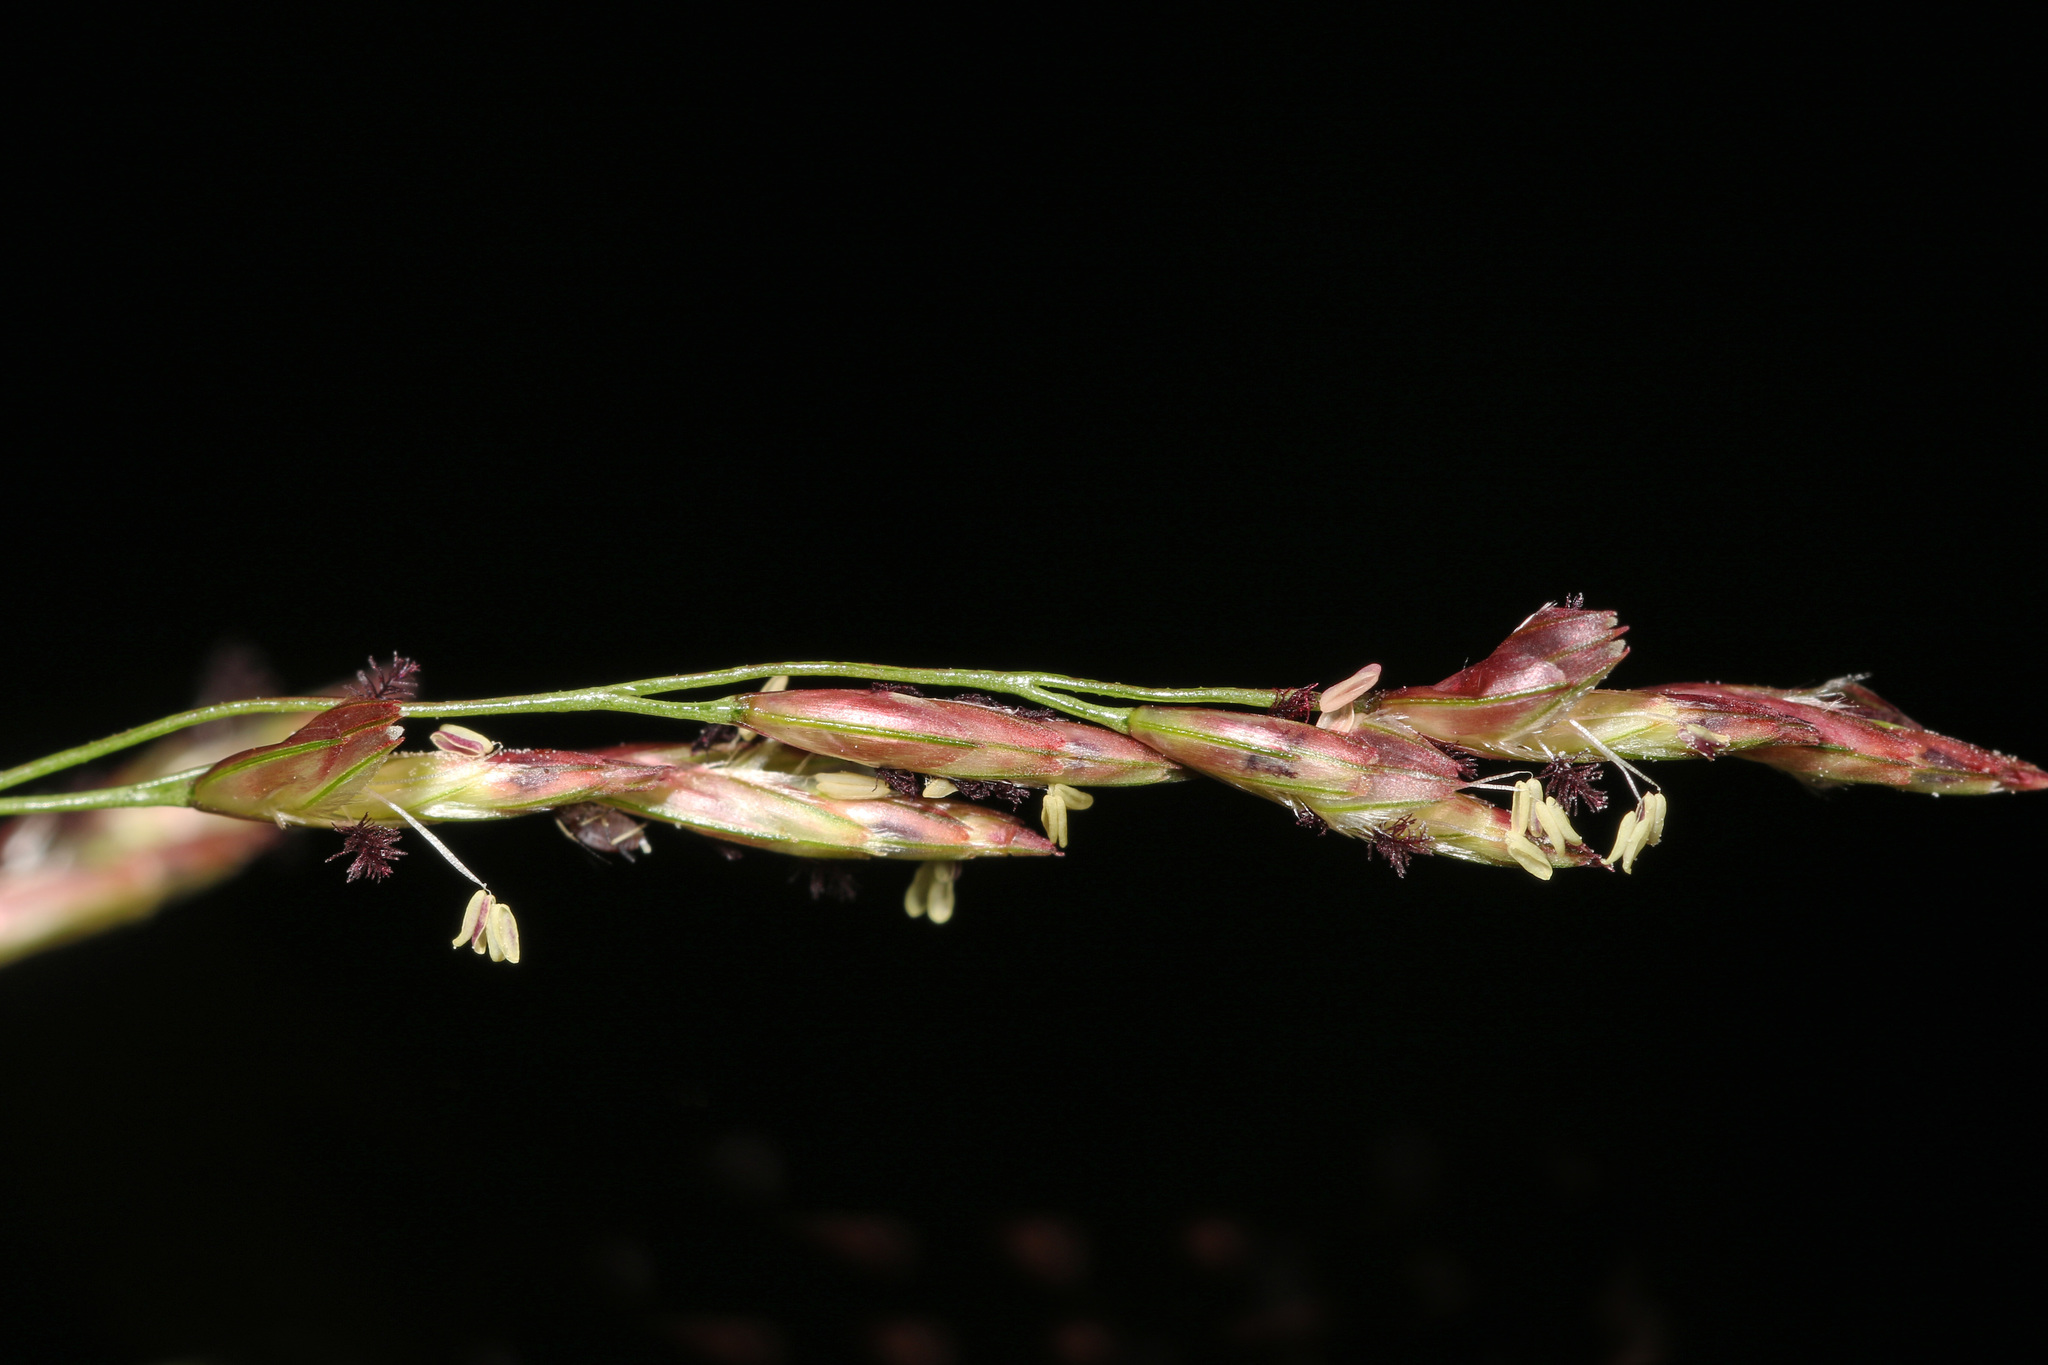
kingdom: Plantae
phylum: Tracheophyta
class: Liliopsida
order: Poales
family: Poaceae
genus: Tridens
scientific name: Tridens flavus
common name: Purpletop
